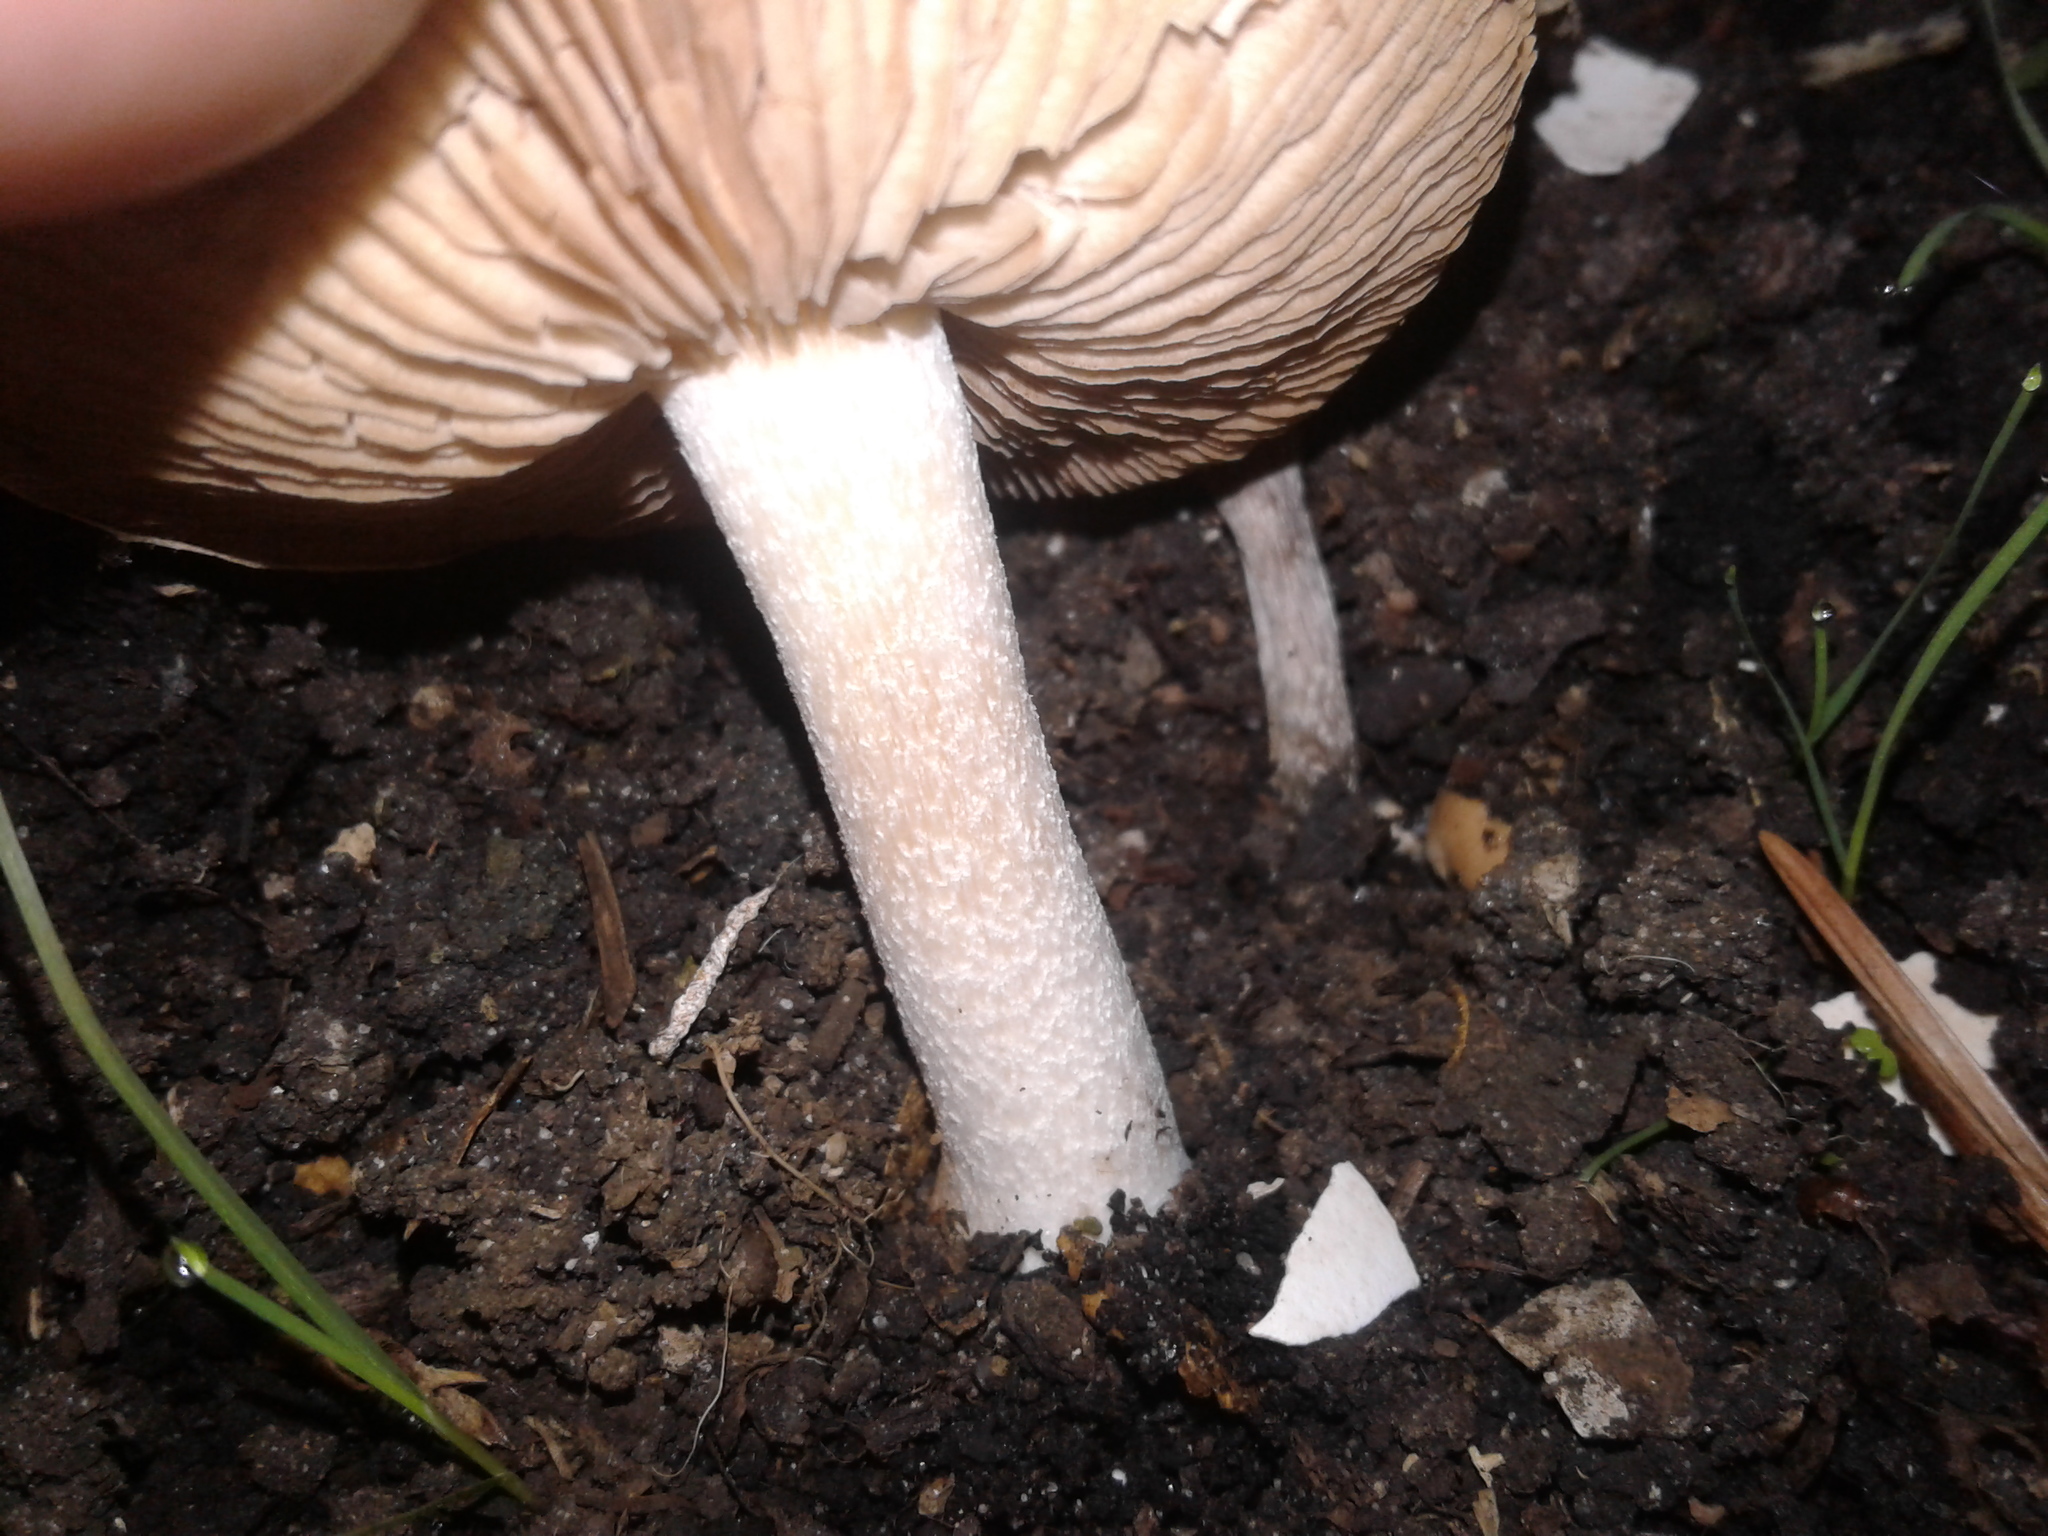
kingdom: Fungi
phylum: Basidiomycota
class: Agaricomycetes
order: Agaricales
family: Hymenogastraceae
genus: Hebeloma
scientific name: Hebeloma
